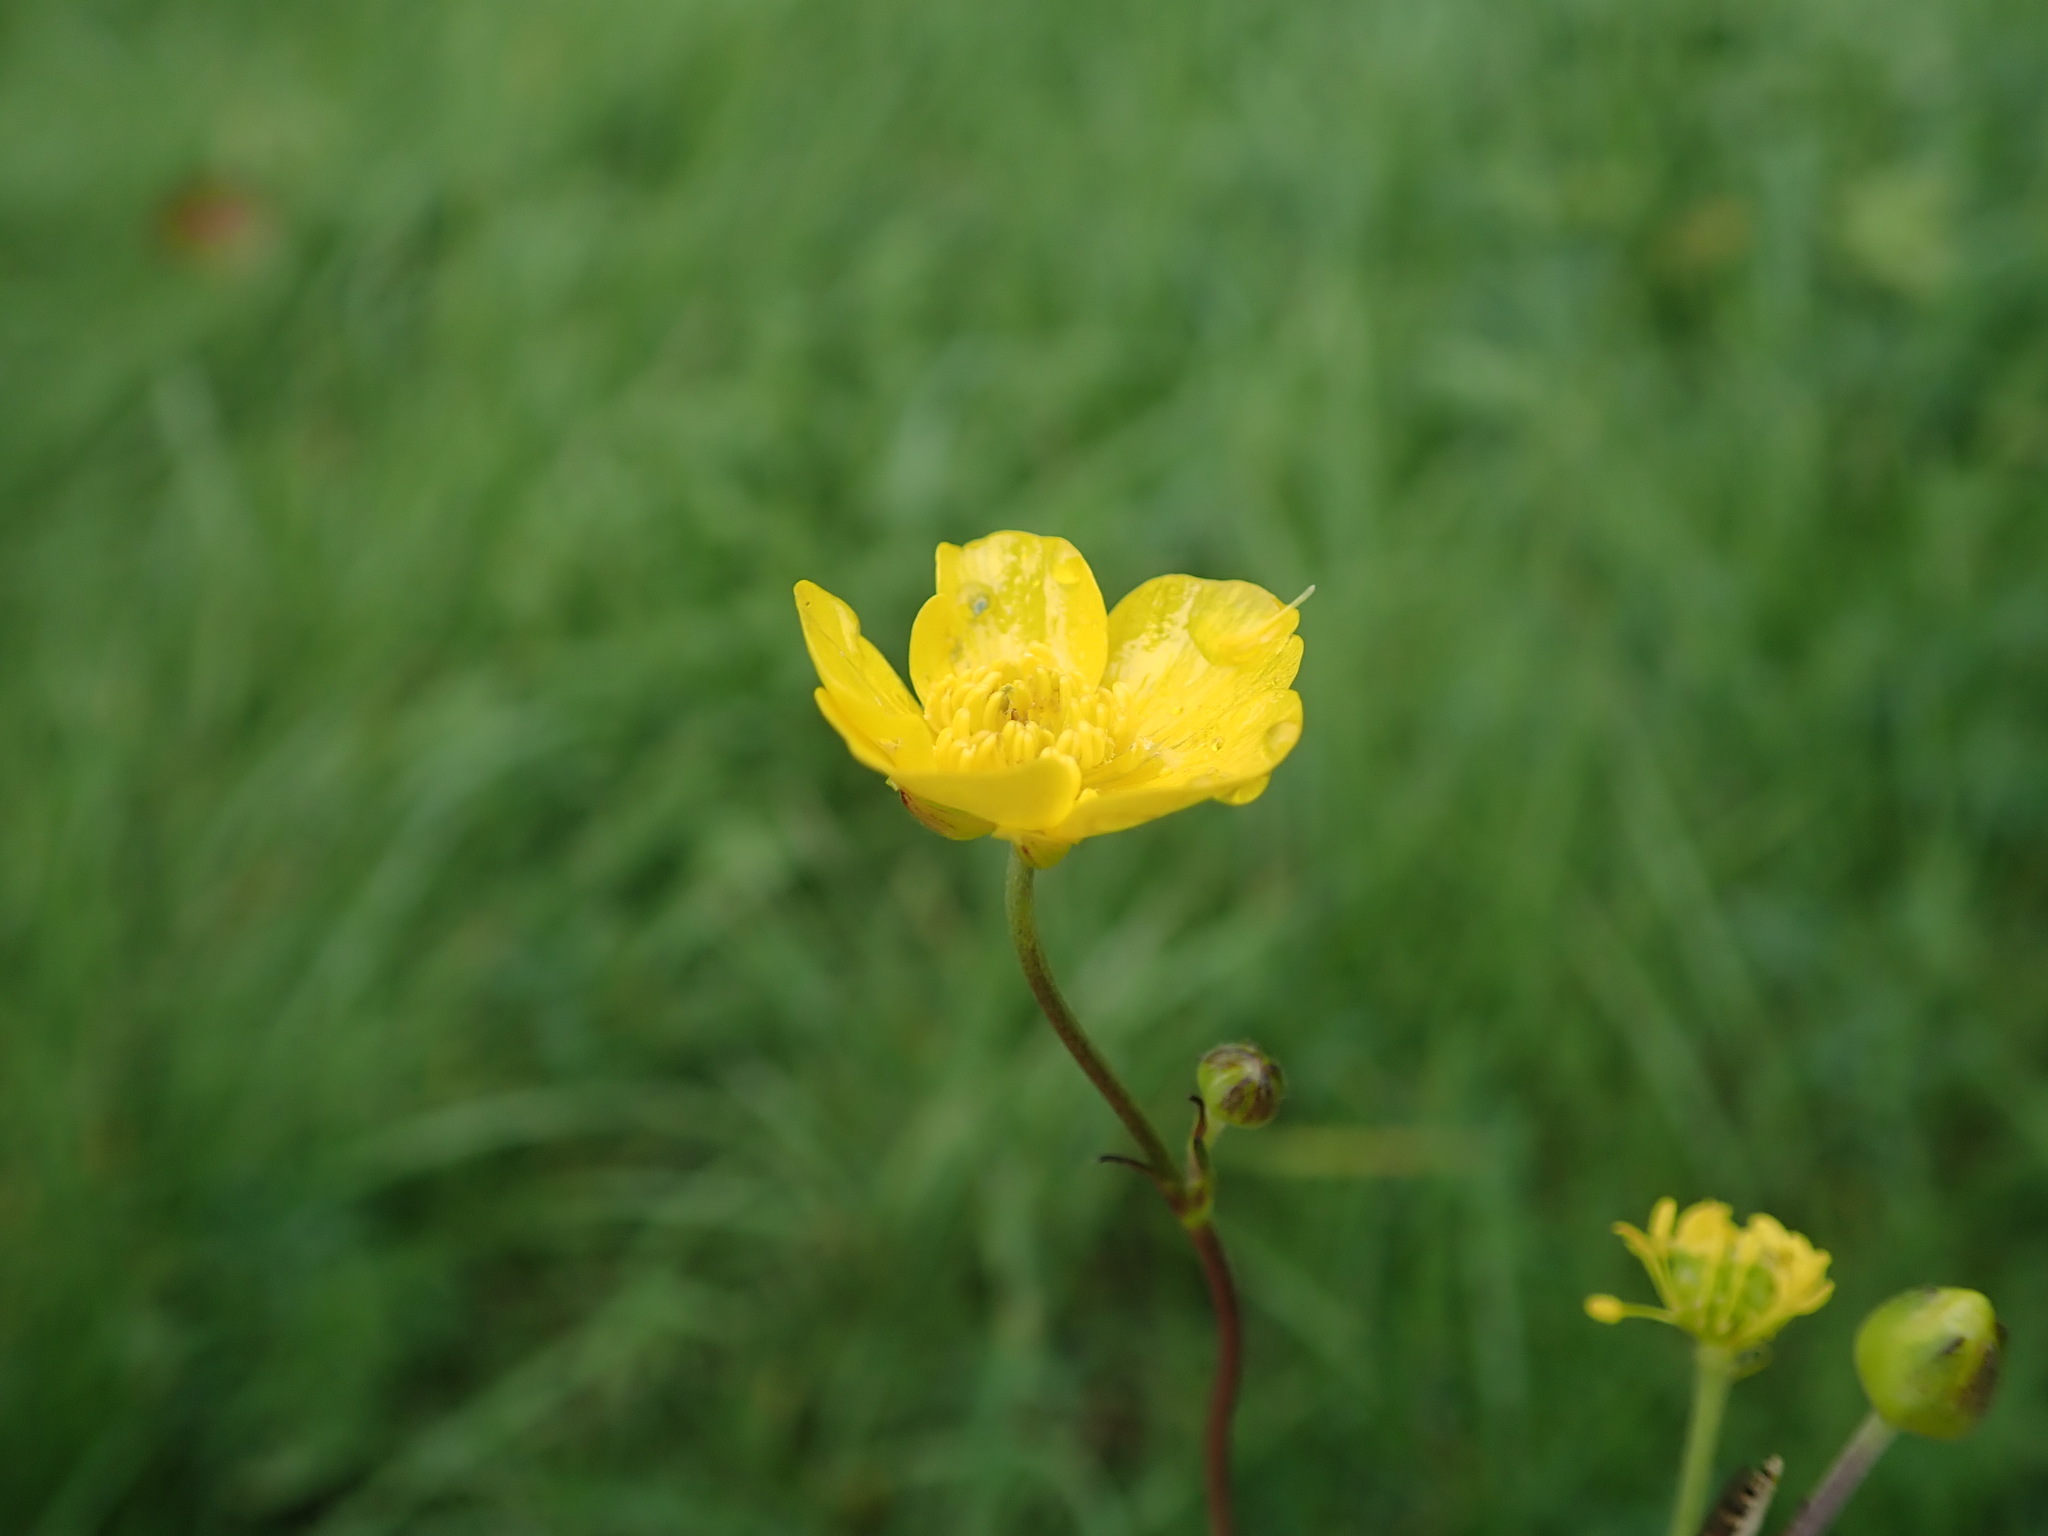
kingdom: Plantae
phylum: Tracheophyta
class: Magnoliopsida
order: Ranunculales
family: Ranunculaceae
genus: Ranunculus
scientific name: Ranunculus acris
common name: Meadow buttercup
